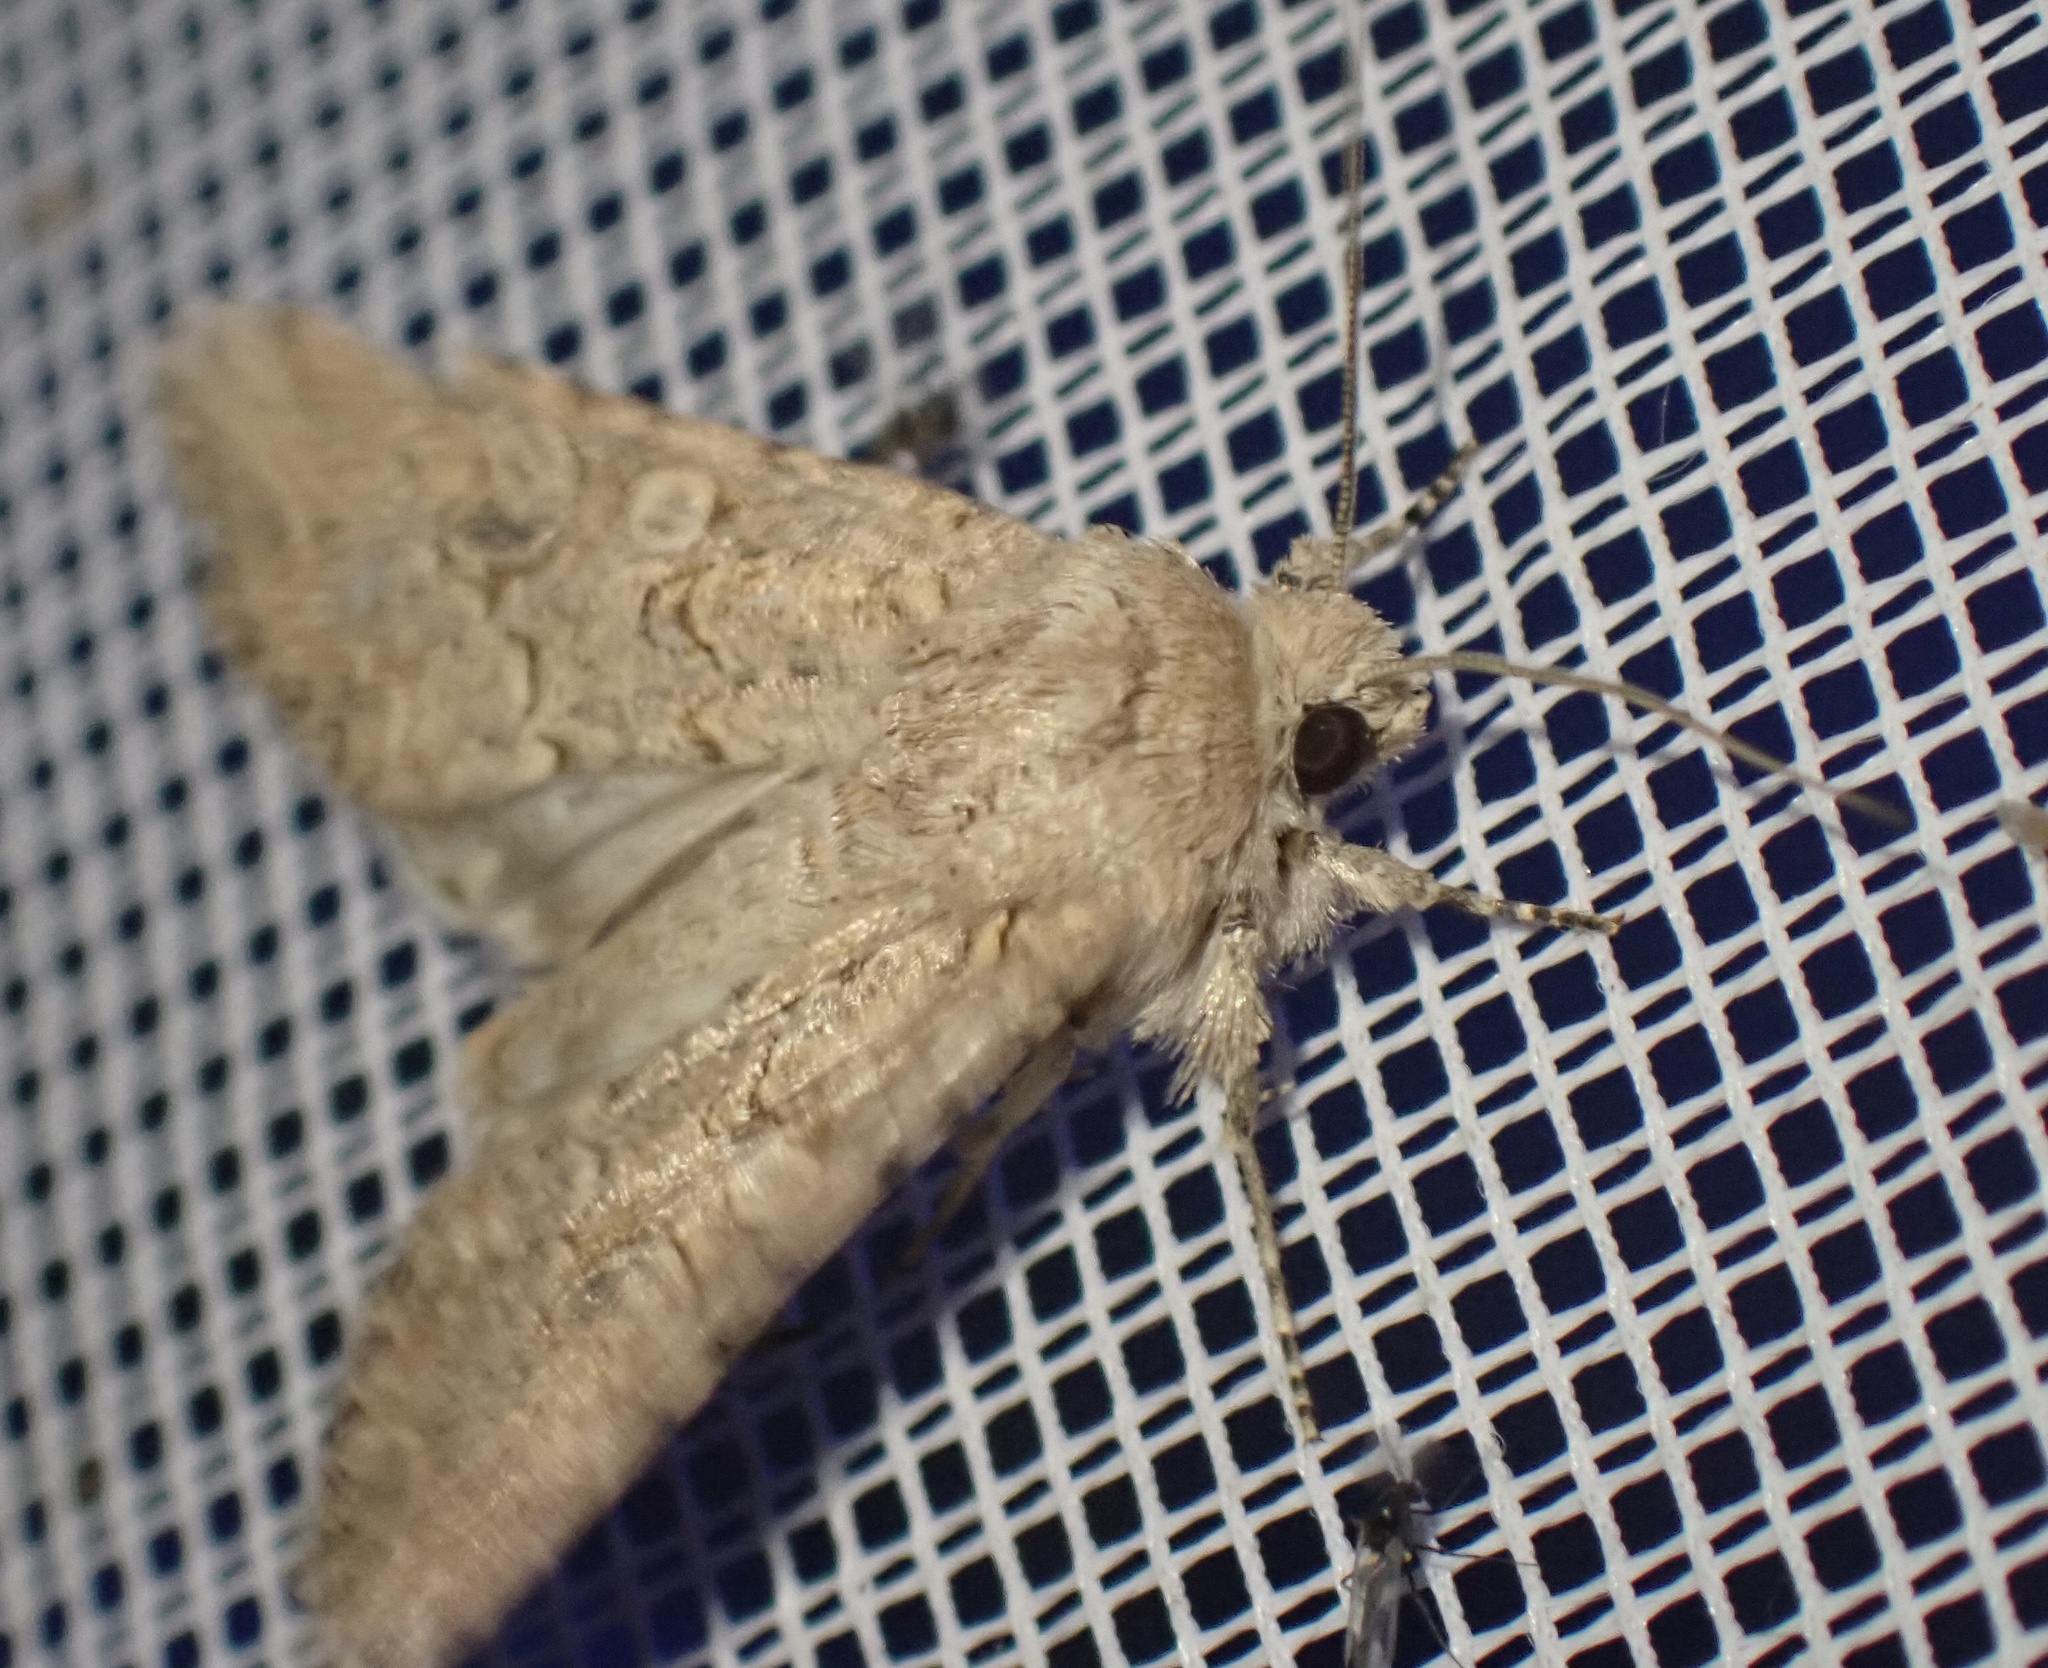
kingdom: Animalia
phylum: Arthropoda
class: Insecta
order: Lepidoptera
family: Noctuidae
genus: Anarta
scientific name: Anarta trifolii
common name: Clover cutworm moth
